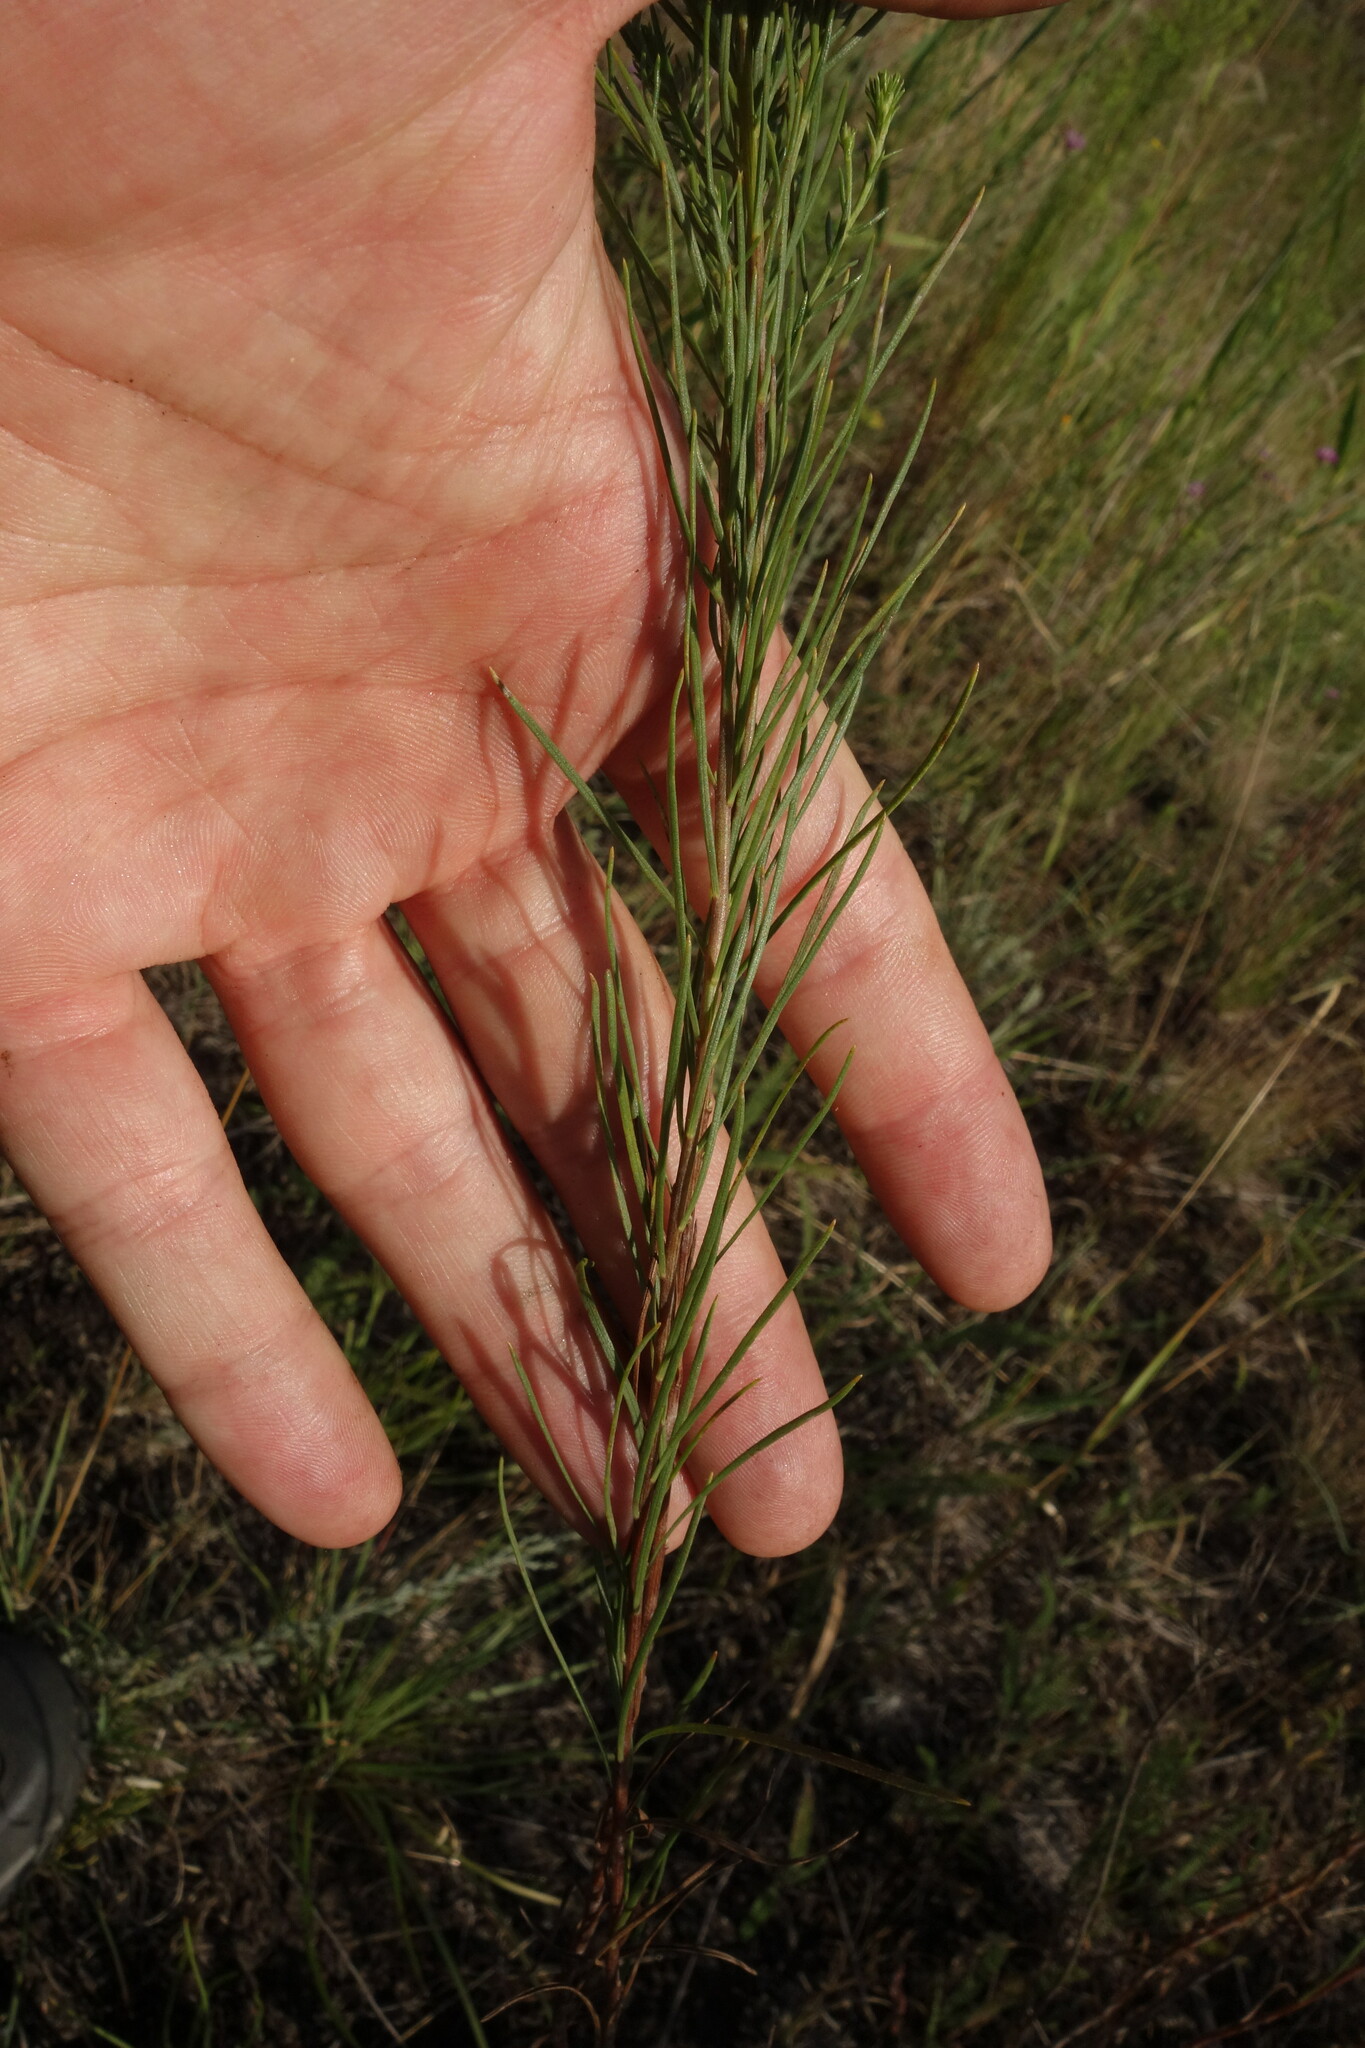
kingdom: Plantae
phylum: Tracheophyta
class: Magnoliopsida
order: Asterales
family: Asteraceae
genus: Galatella
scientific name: Galatella linosyris
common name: Goldilocks aster
